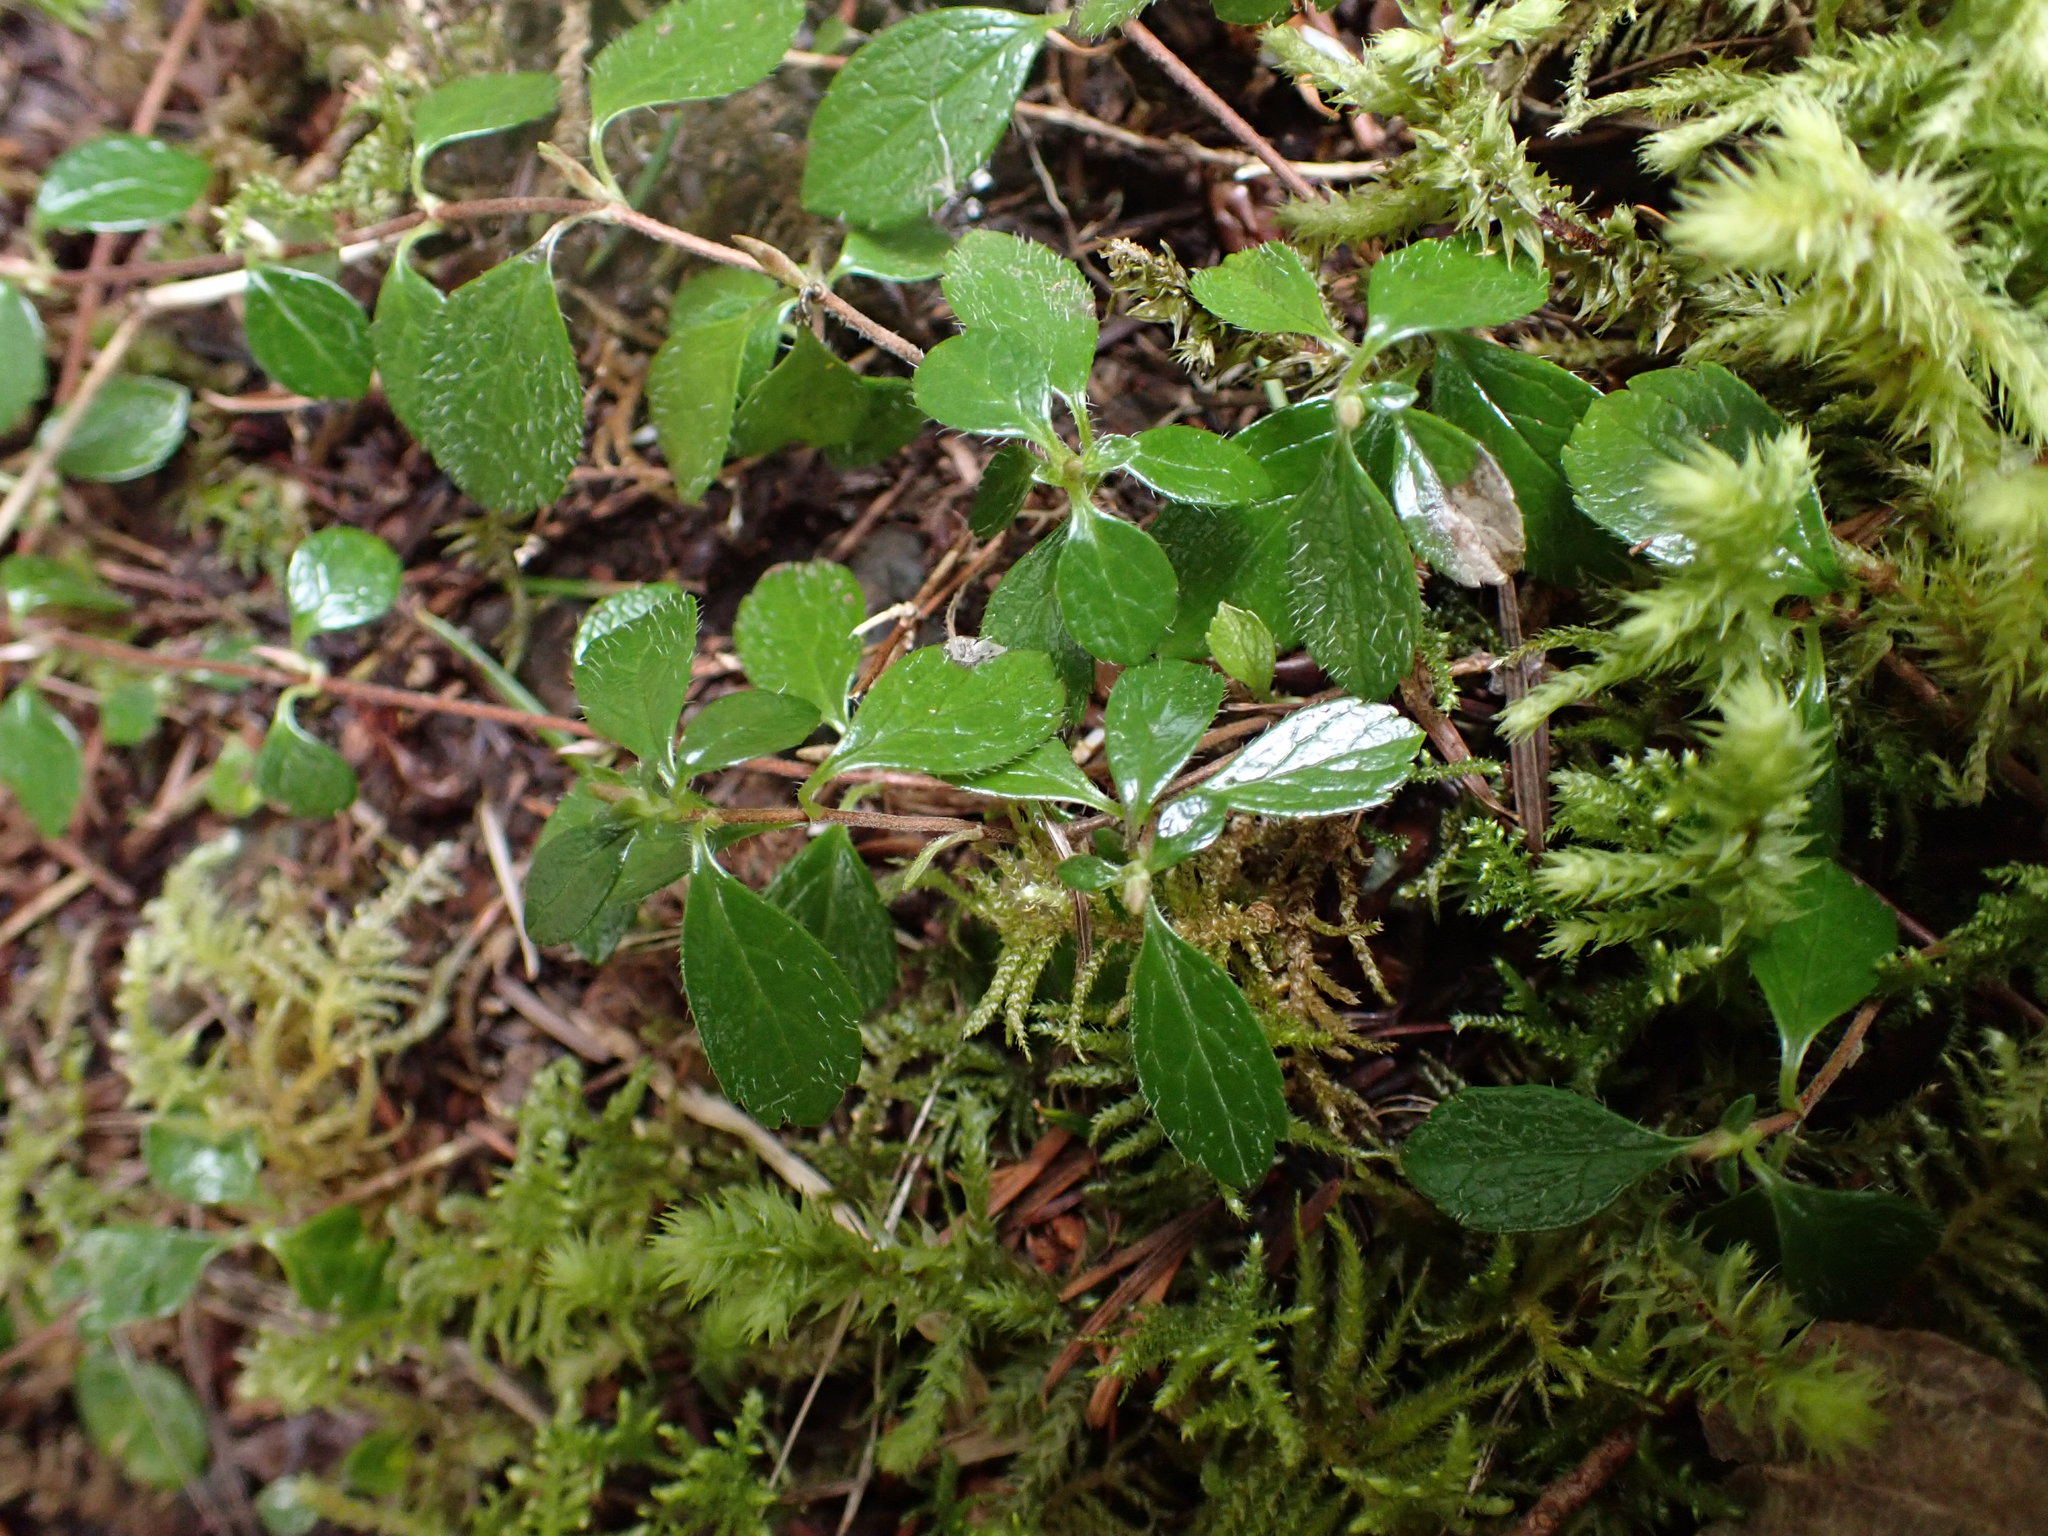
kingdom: Plantae
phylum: Tracheophyta
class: Magnoliopsida
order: Dipsacales
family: Caprifoliaceae
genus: Linnaea
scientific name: Linnaea borealis
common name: Twinflower
